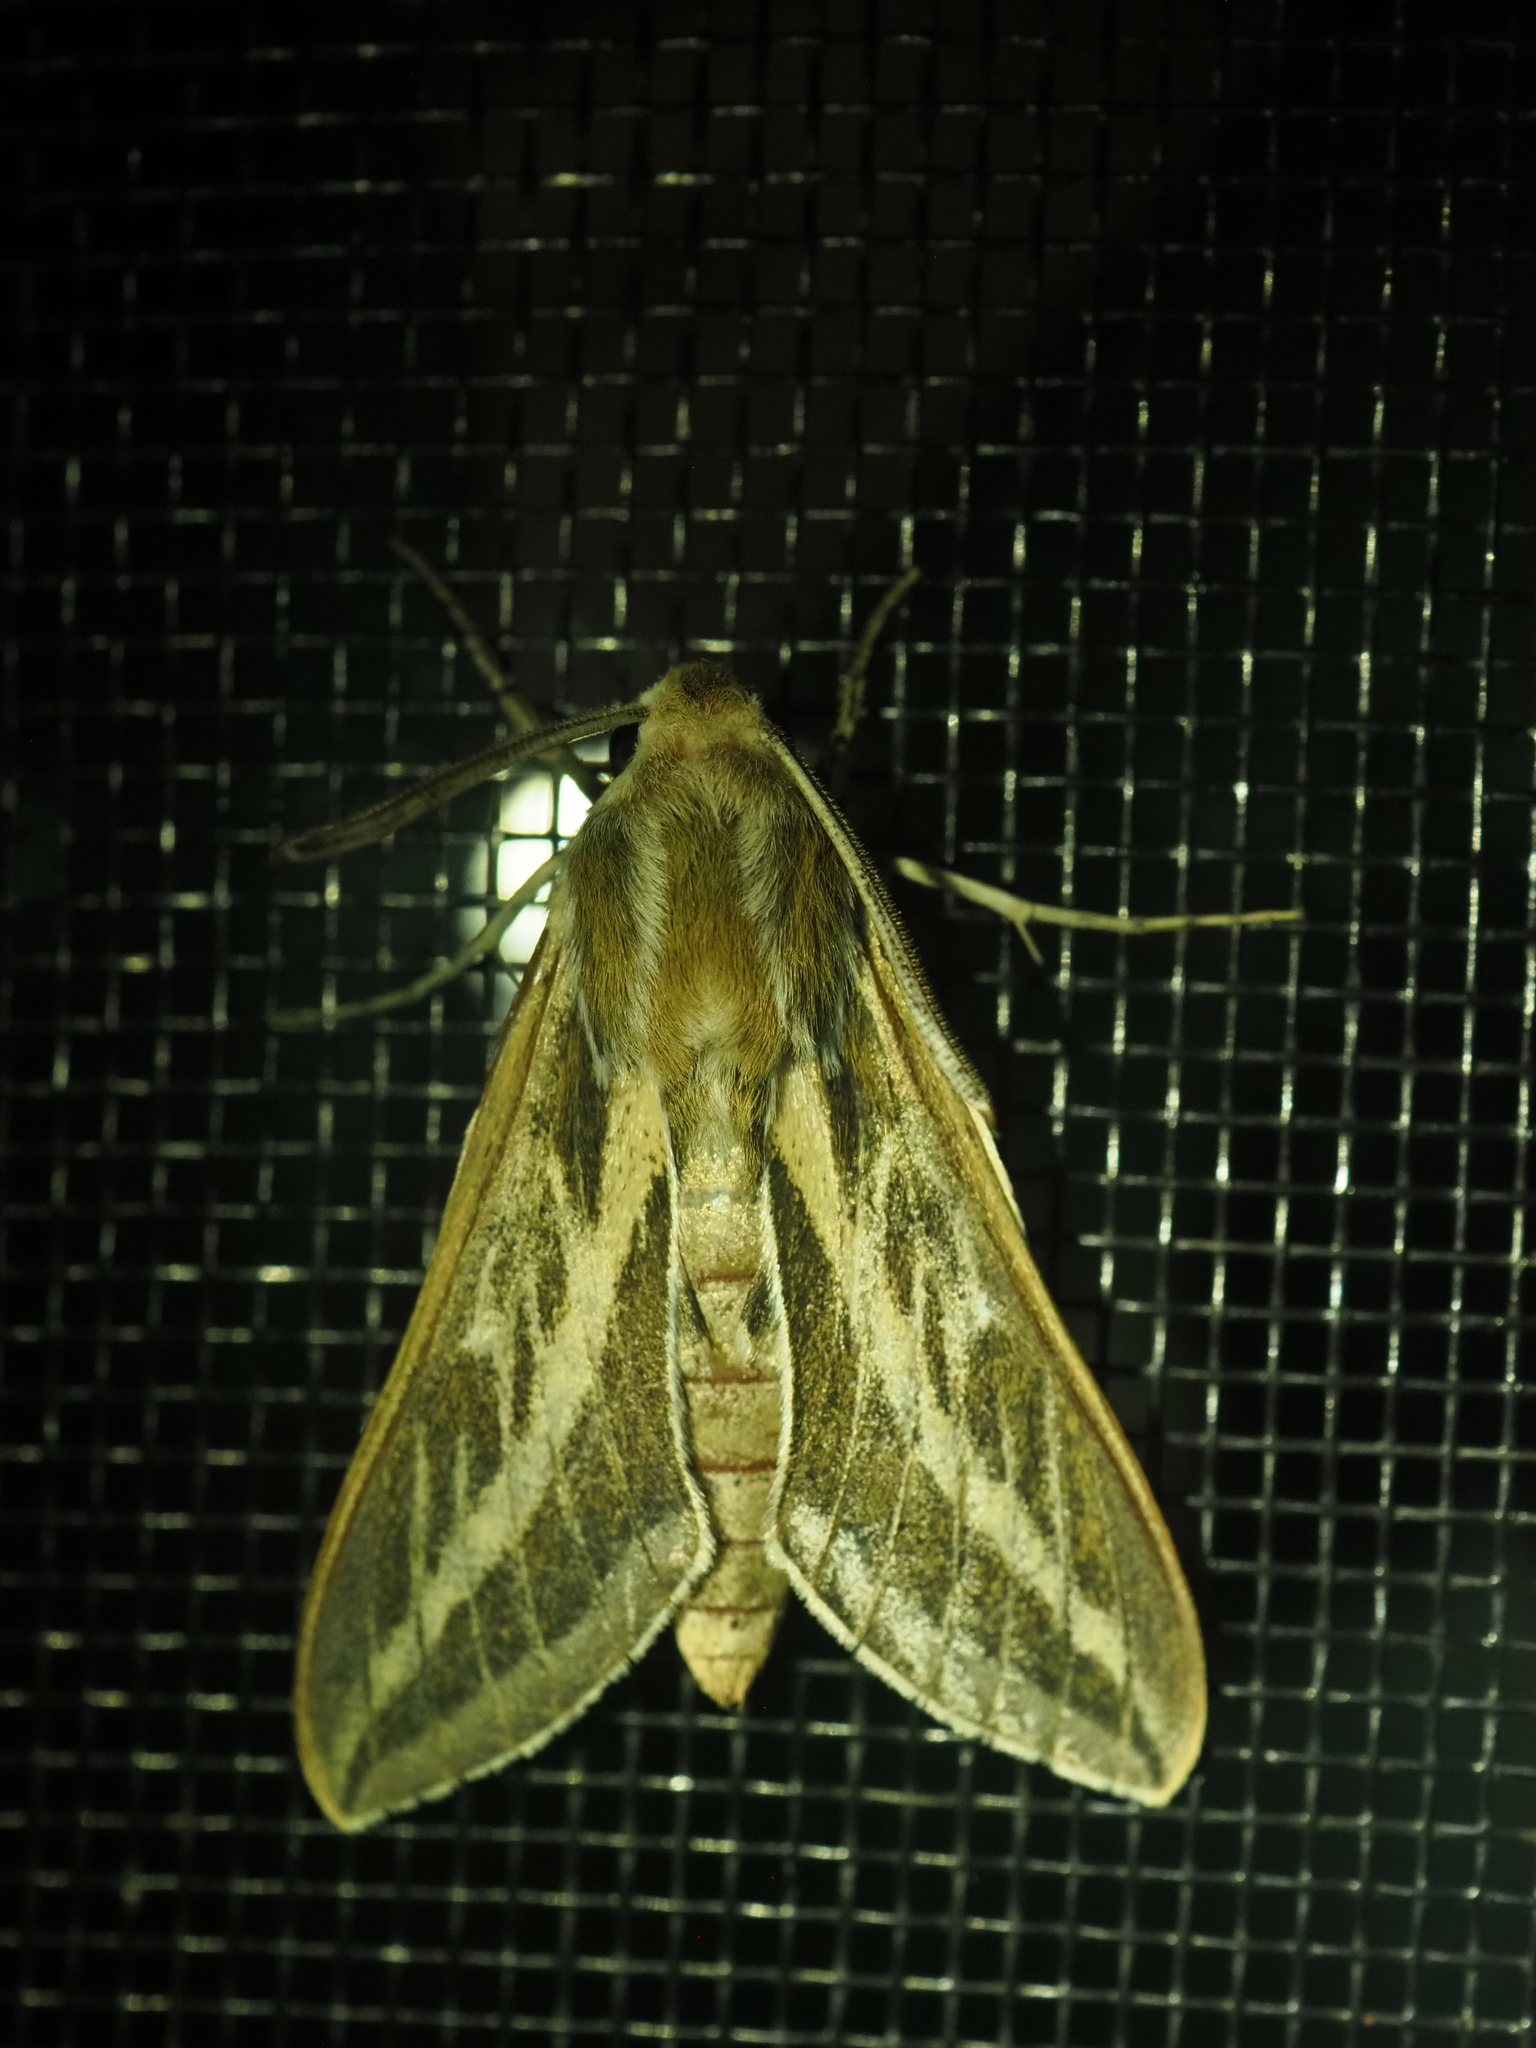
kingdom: Animalia
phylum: Arthropoda
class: Insecta
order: Lepidoptera
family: Sphingidae
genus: Hyles
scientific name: Hyles livornicoides
